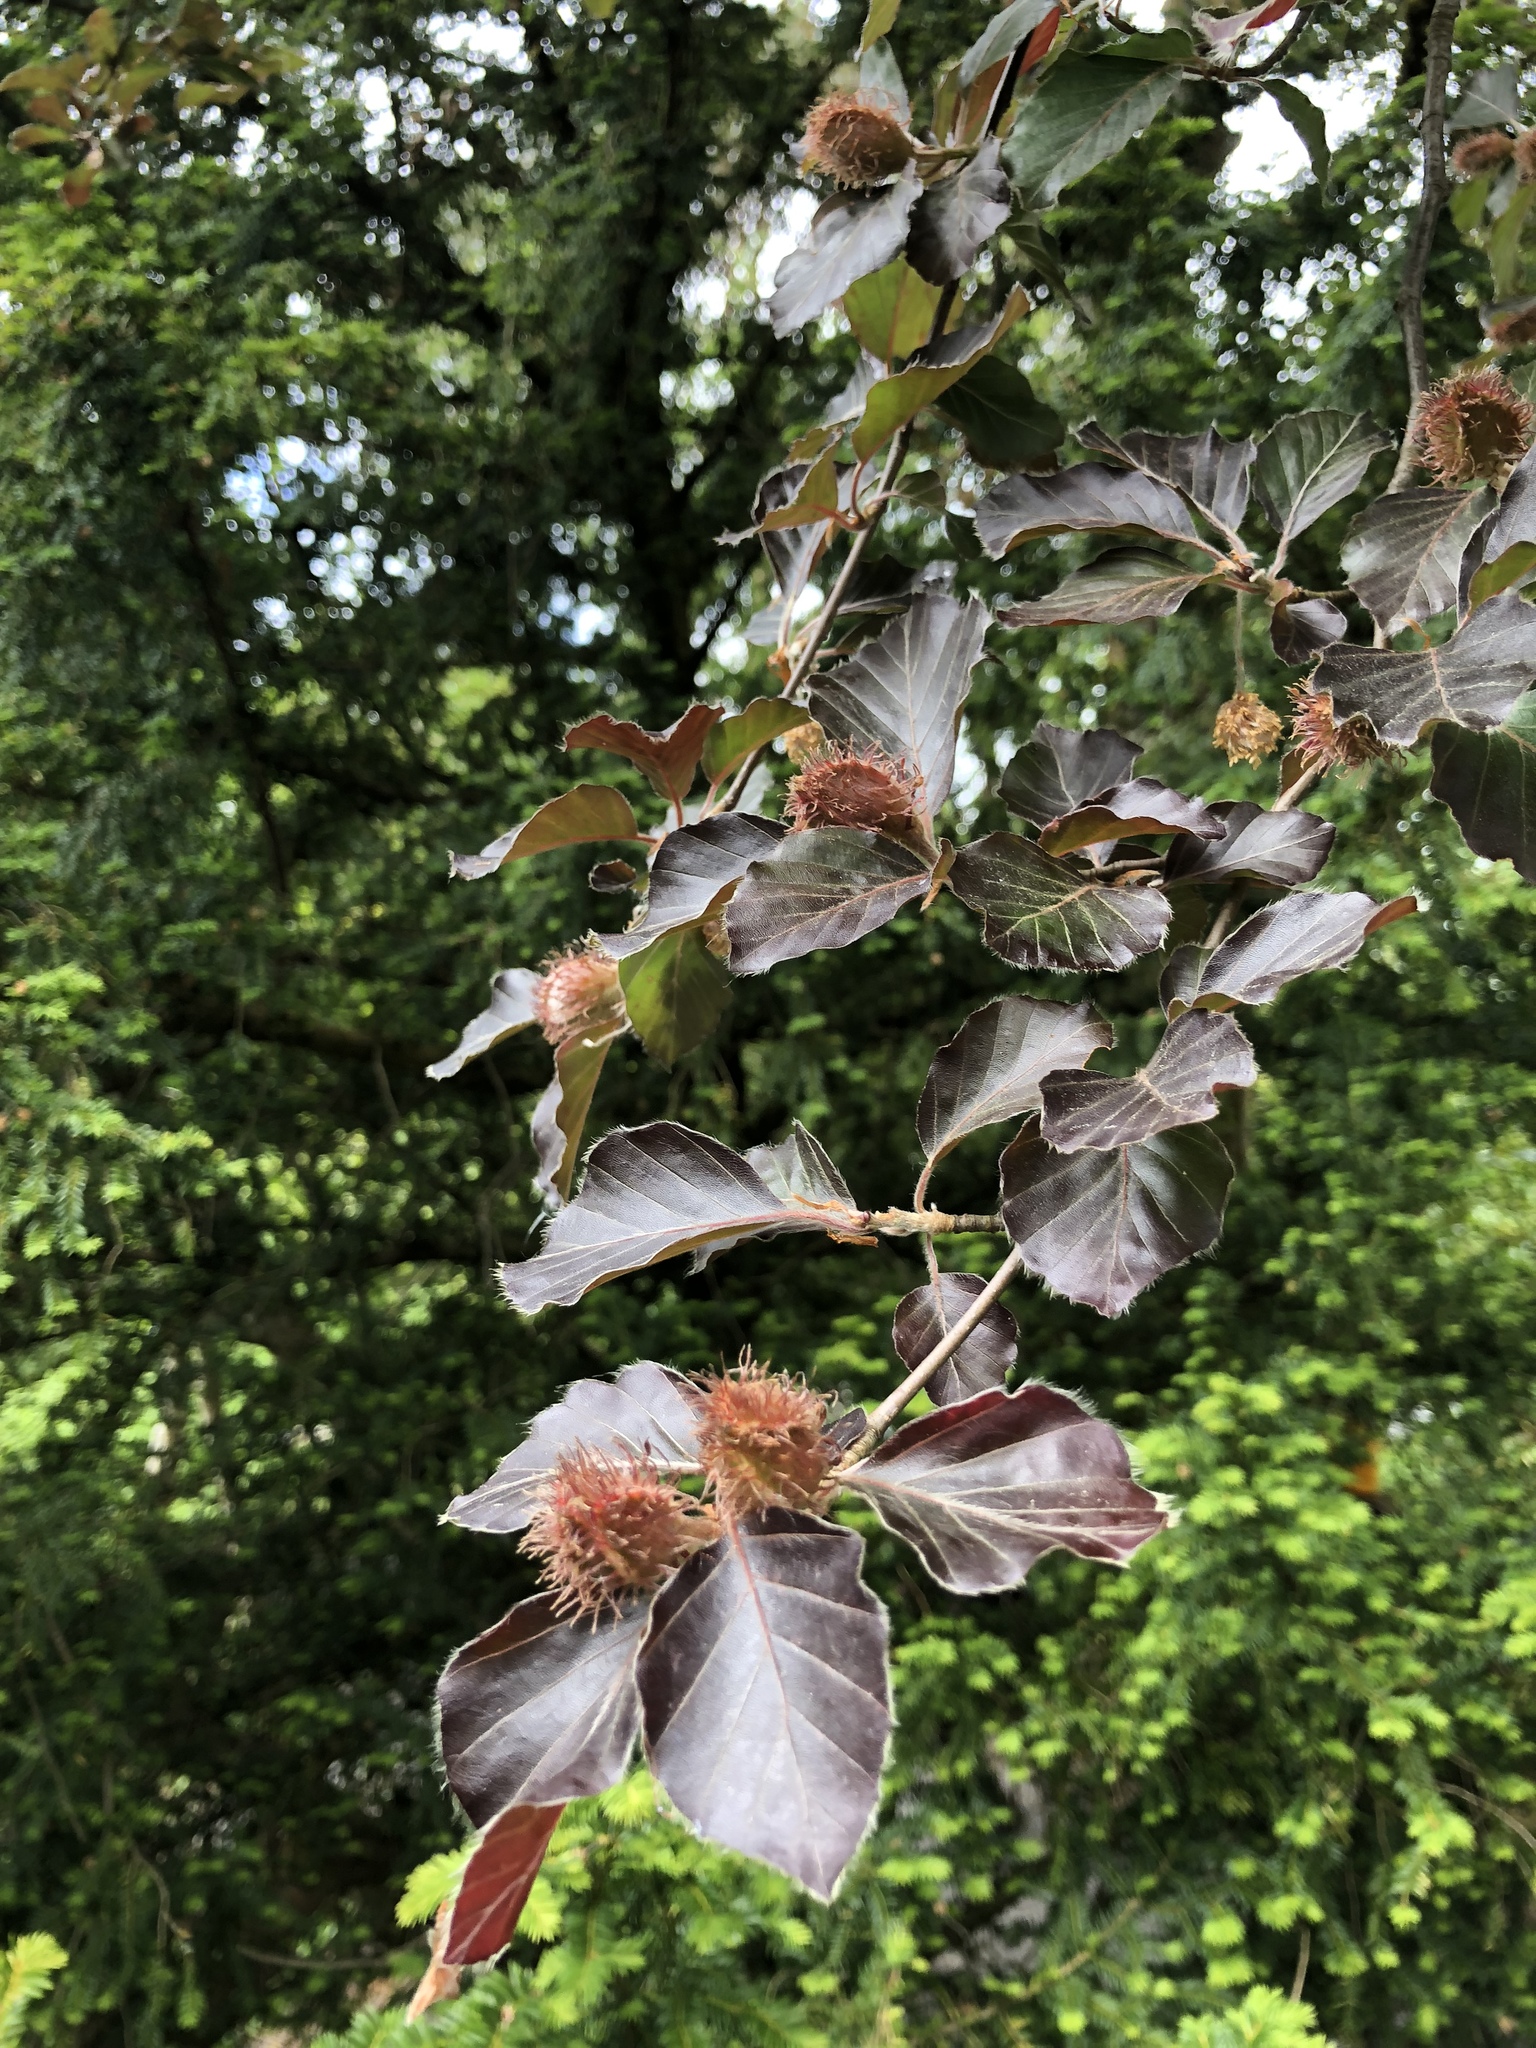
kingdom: Plantae
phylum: Tracheophyta
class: Magnoliopsida
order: Fagales
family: Fagaceae
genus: Fagus
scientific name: Fagus sylvatica
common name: Beech
